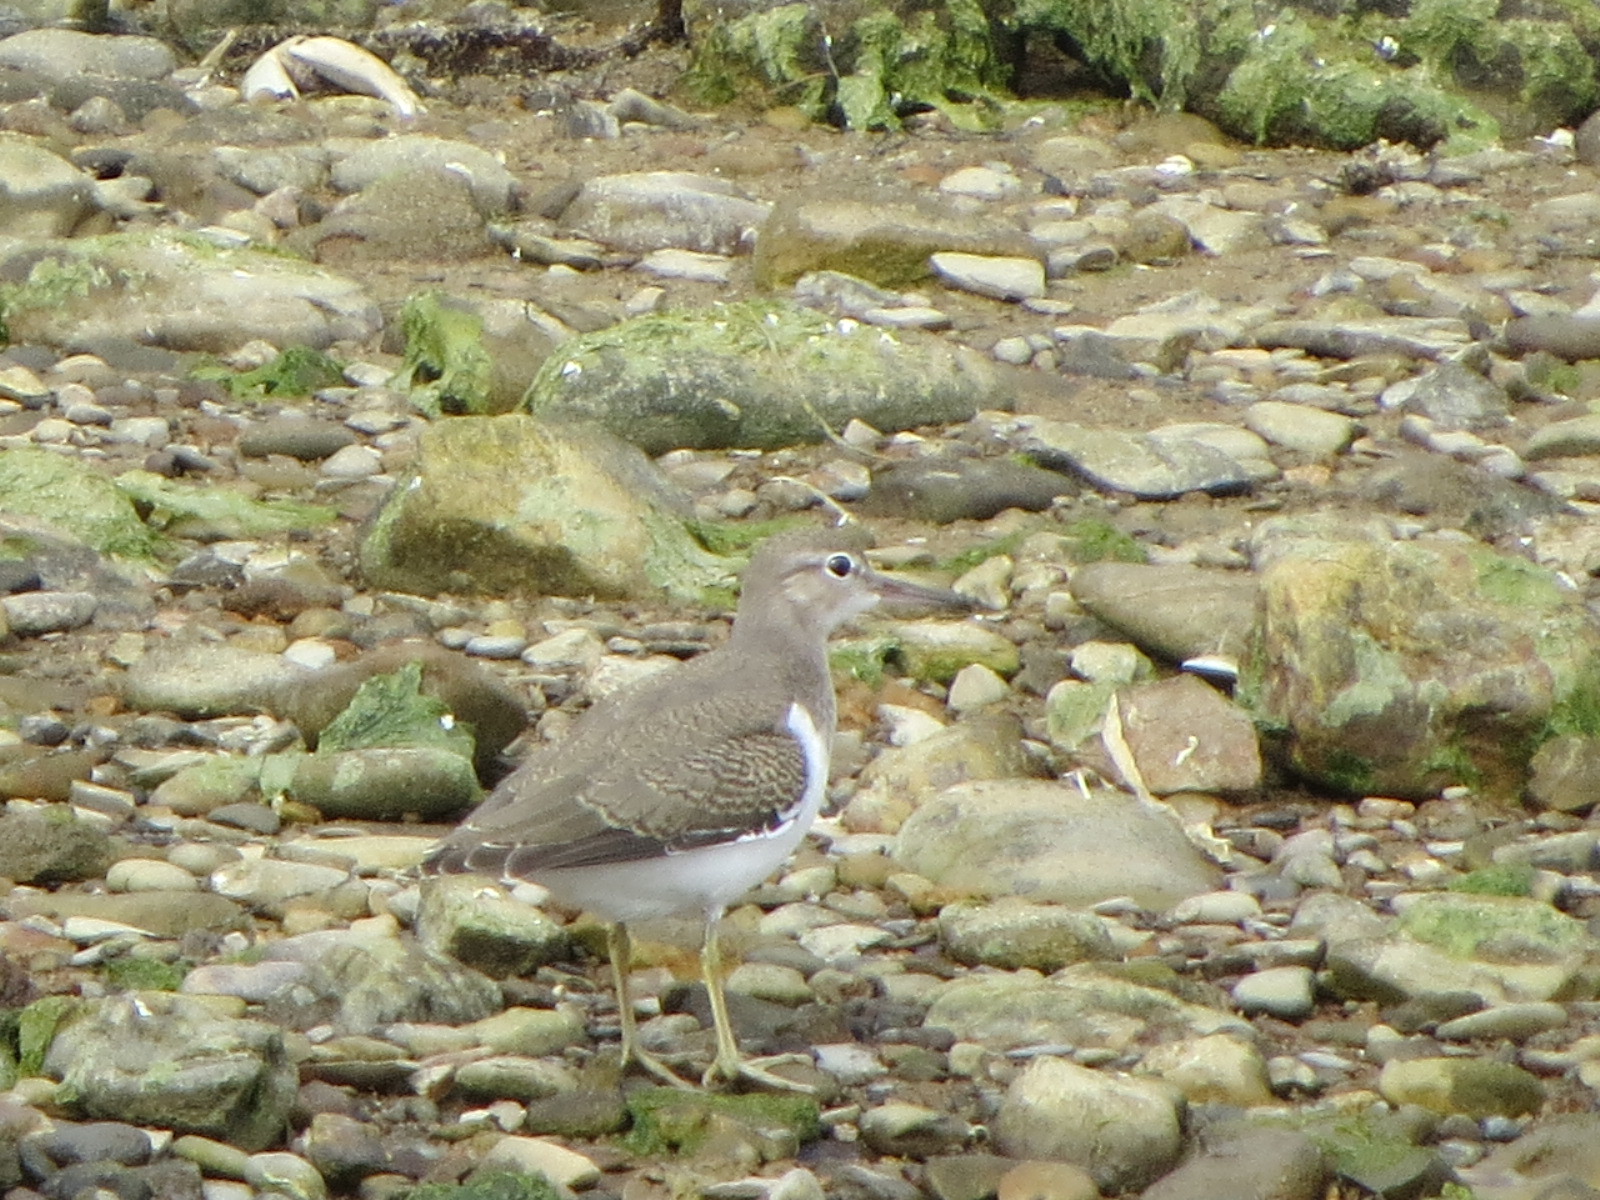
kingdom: Animalia
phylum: Chordata
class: Aves
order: Charadriiformes
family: Scolopacidae
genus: Actitis
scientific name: Actitis macularius
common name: Spotted sandpiper
